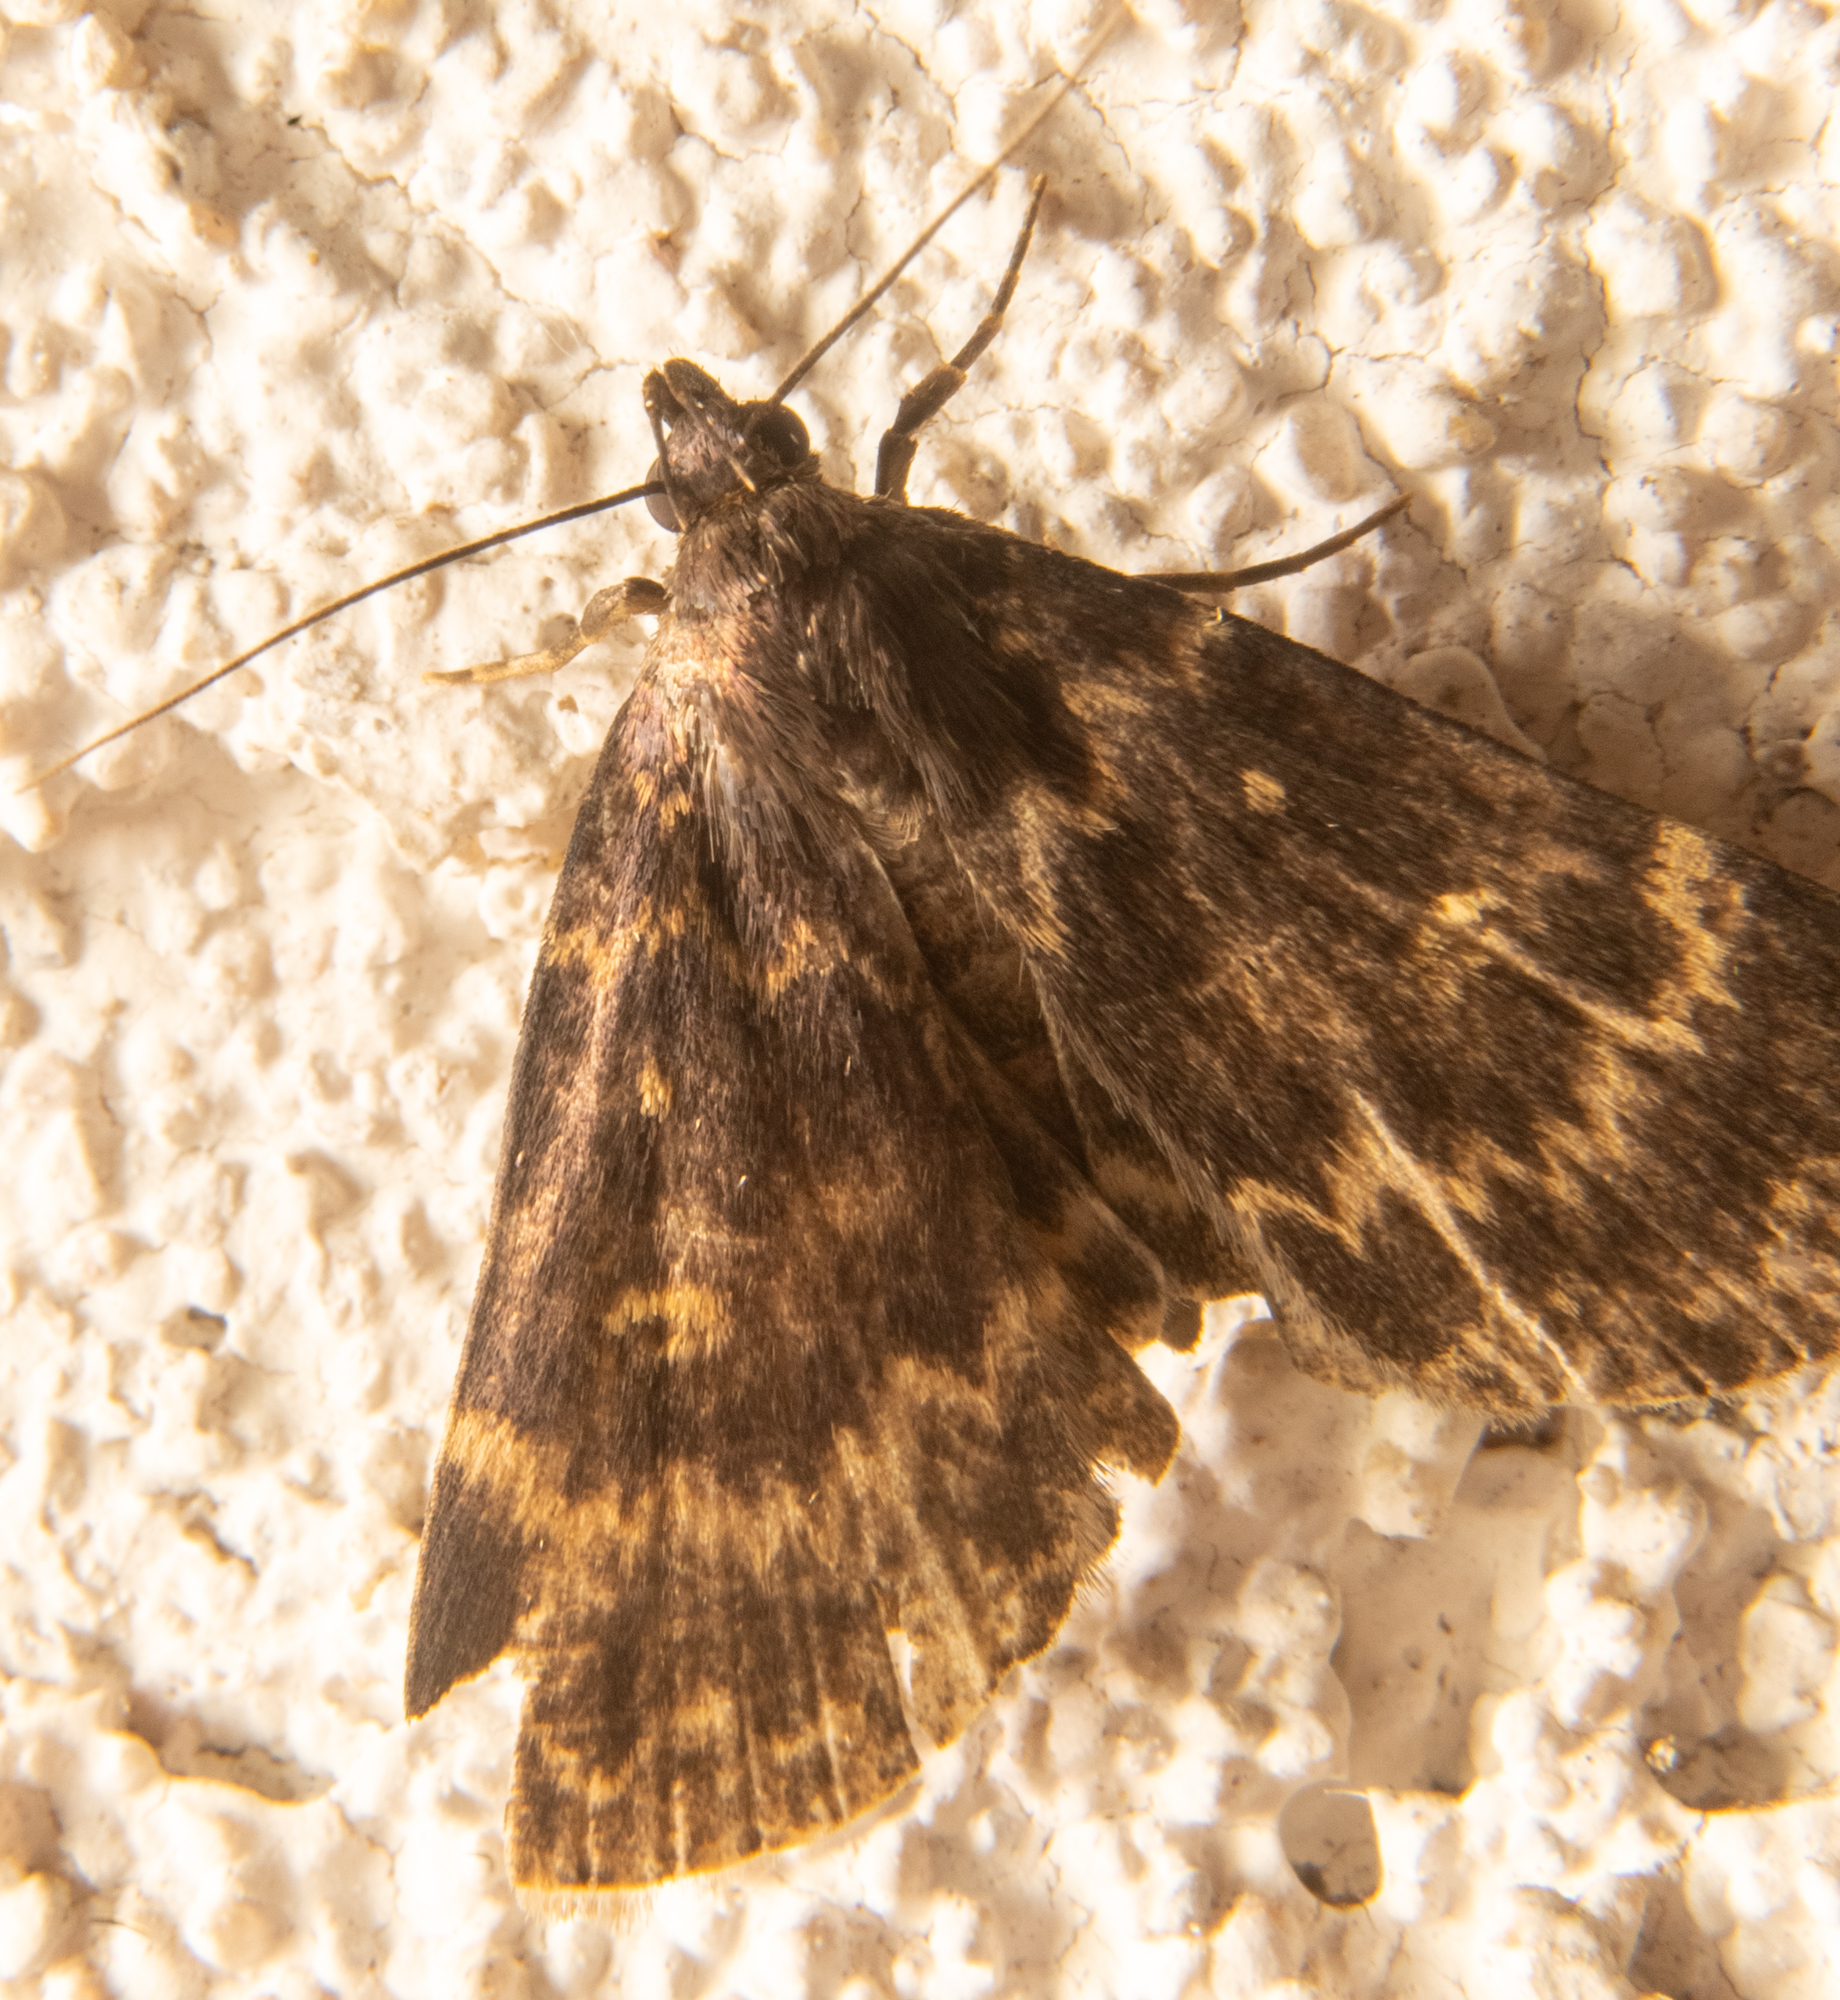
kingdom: Animalia
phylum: Arthropoda
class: Insecta
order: Lepidoptera
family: Erebidae
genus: Idia
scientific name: Idia lubricalis
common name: Twin-striped tabby
